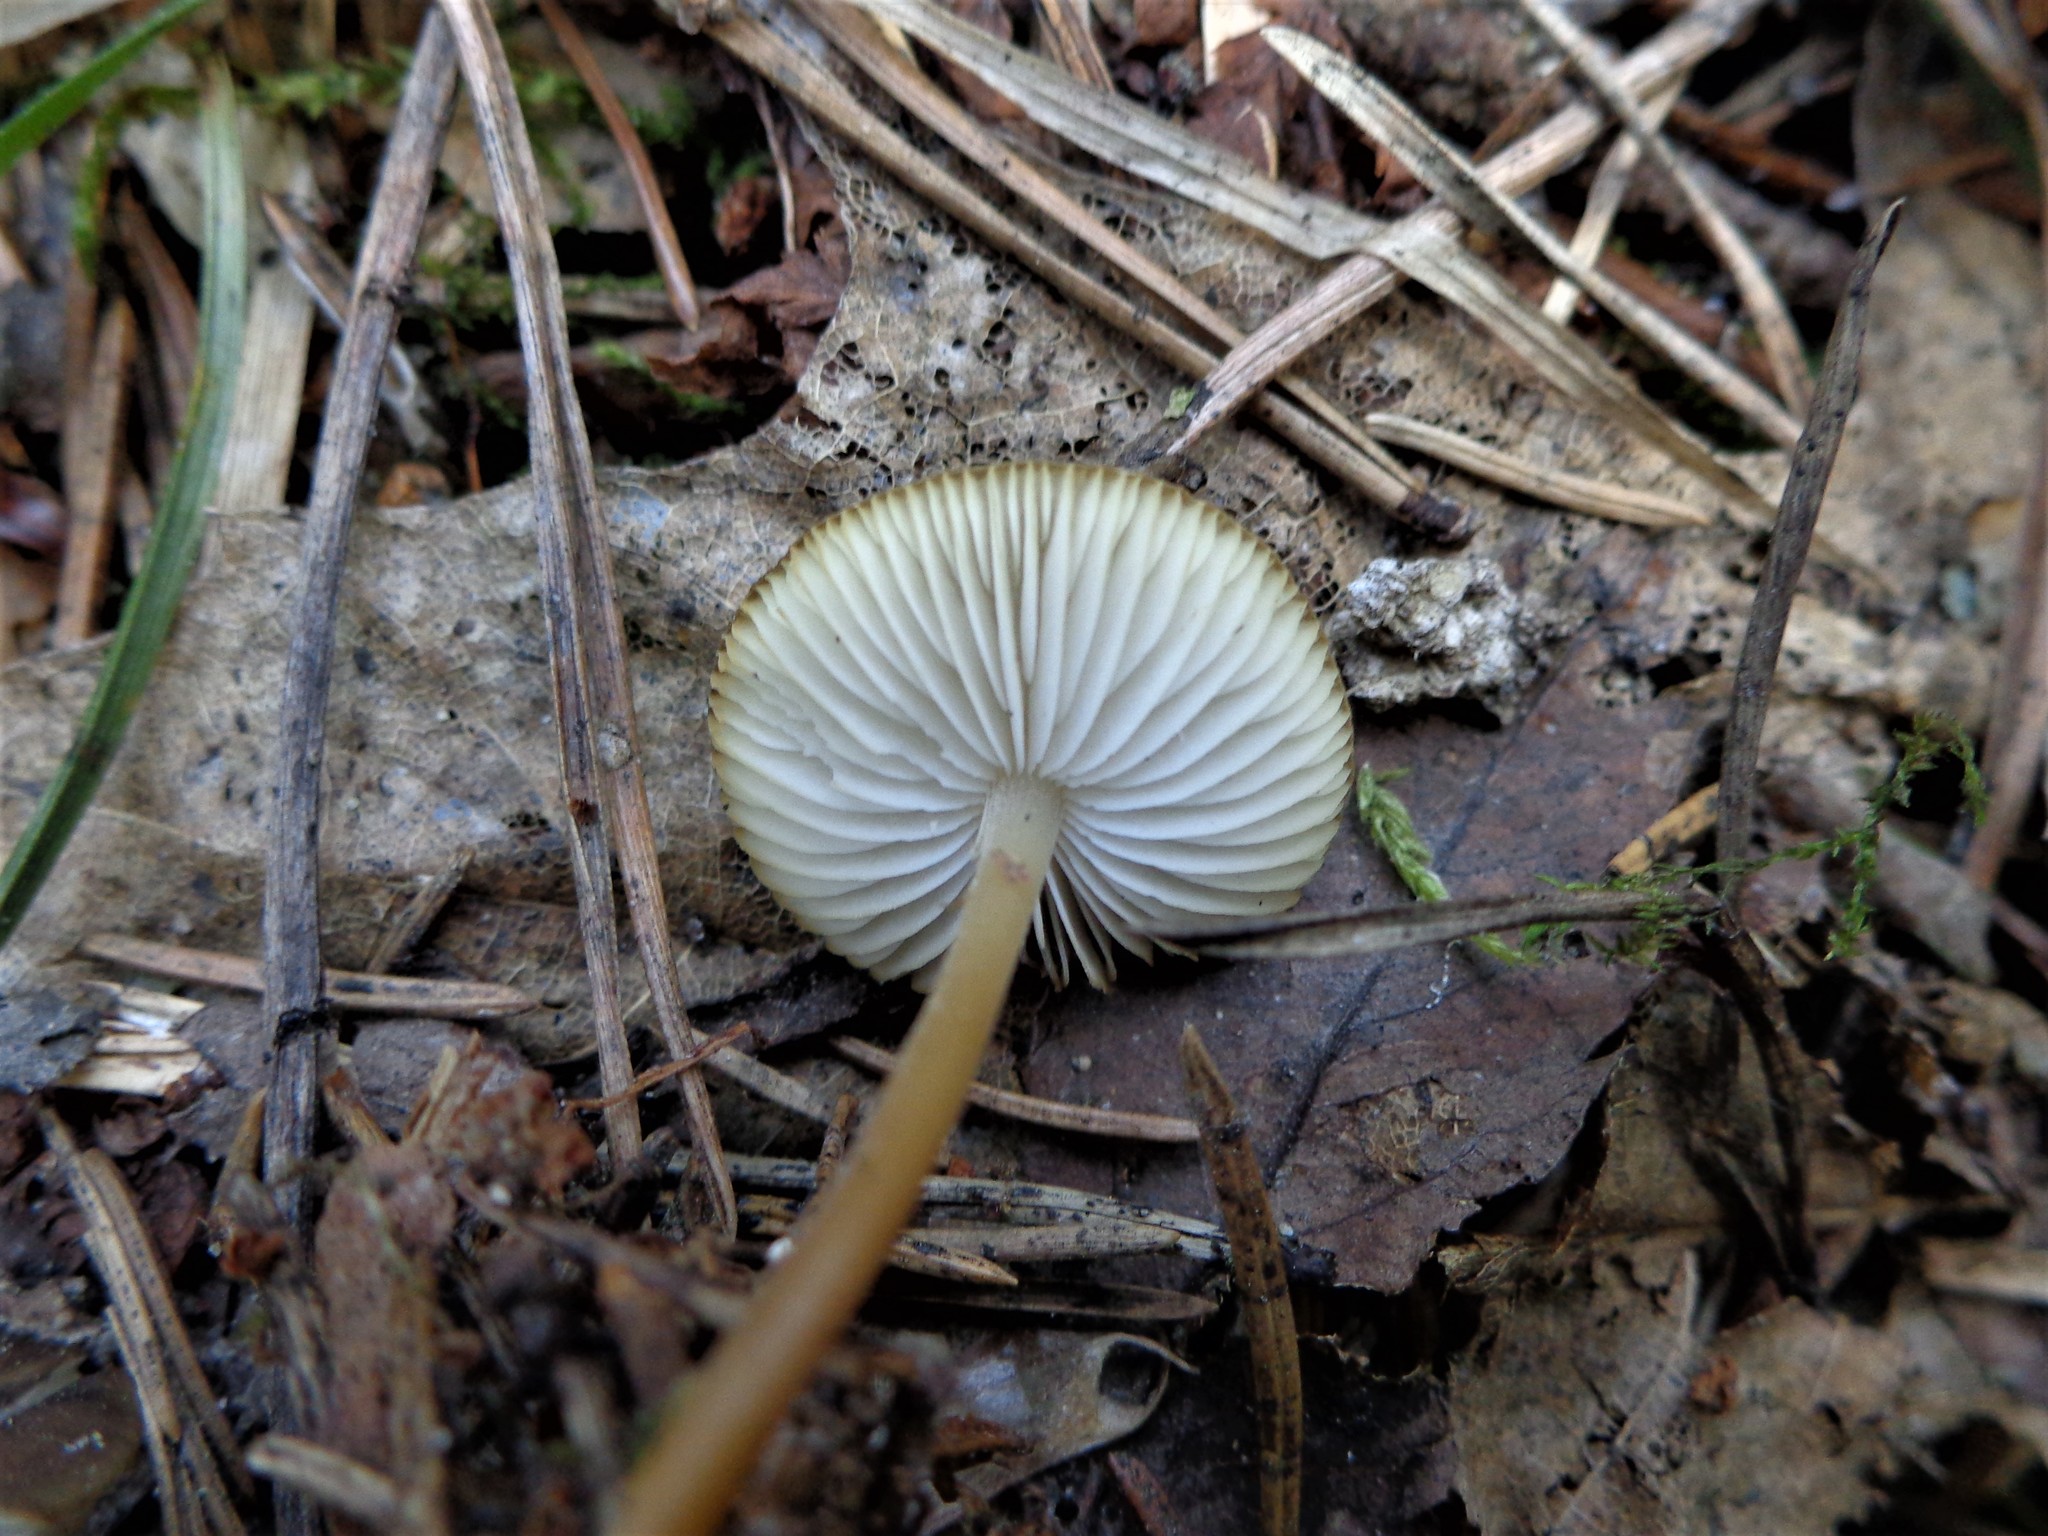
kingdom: Fungi
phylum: Basidiomycota
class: Agaricomycetes
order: Agaricales
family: Physalacriaceae
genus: Strobilurus
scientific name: Strobilurus
